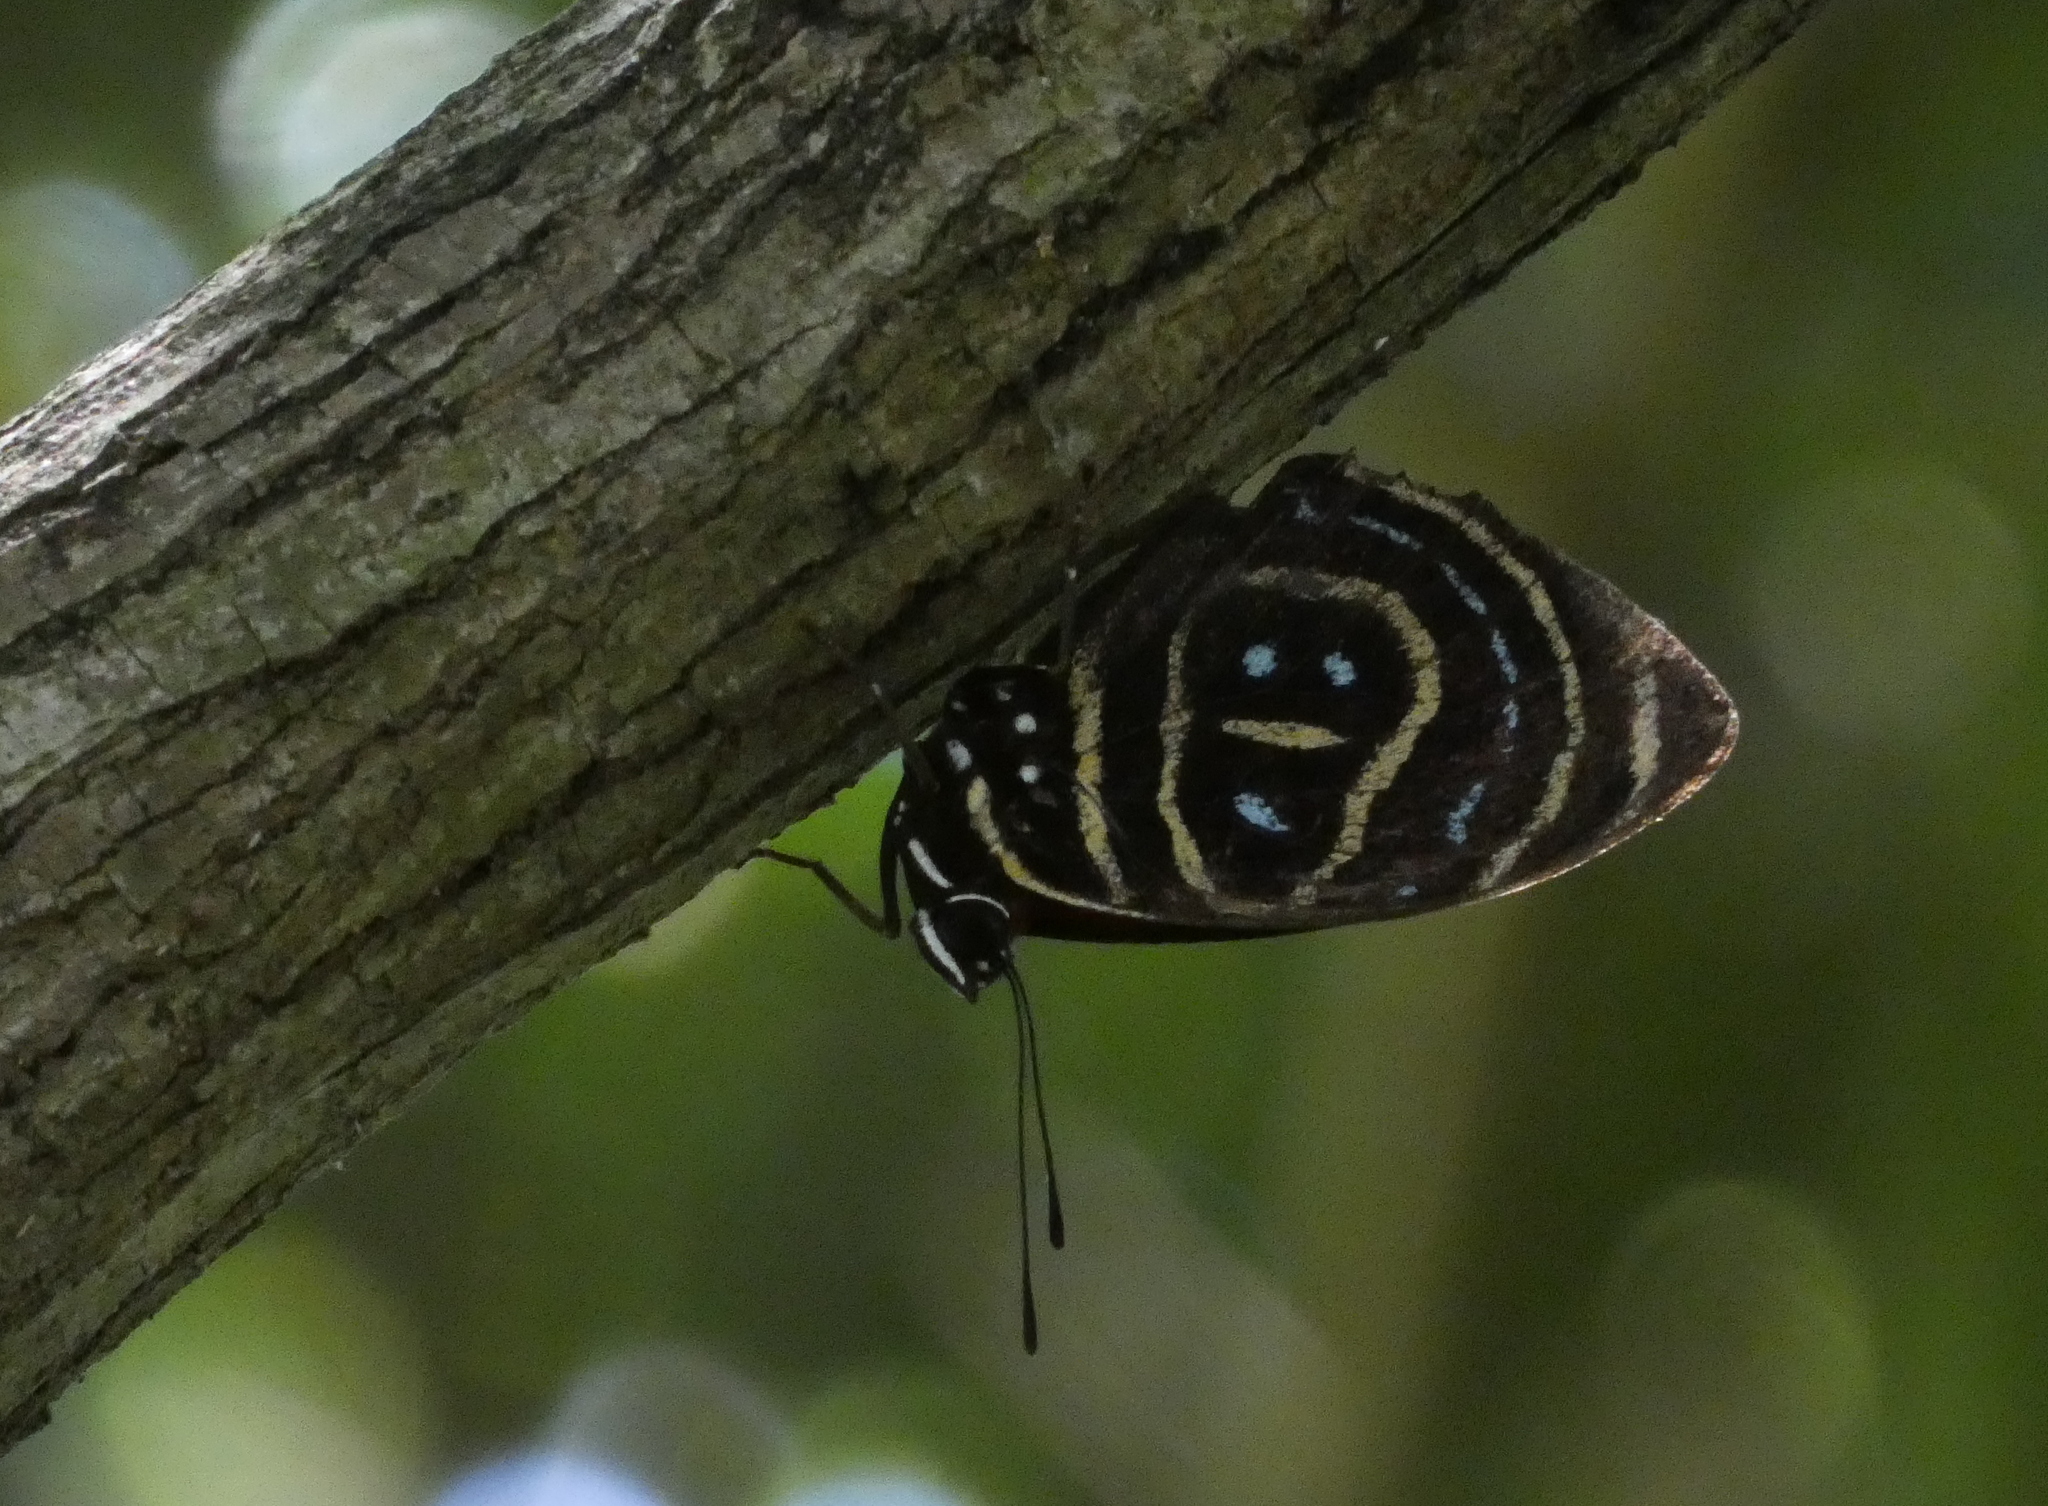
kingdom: Animalia
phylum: Arthropoda
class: Insecta
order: Lepidoptera
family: Nymphalidae
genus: Catagramma
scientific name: Catagramma astarte
